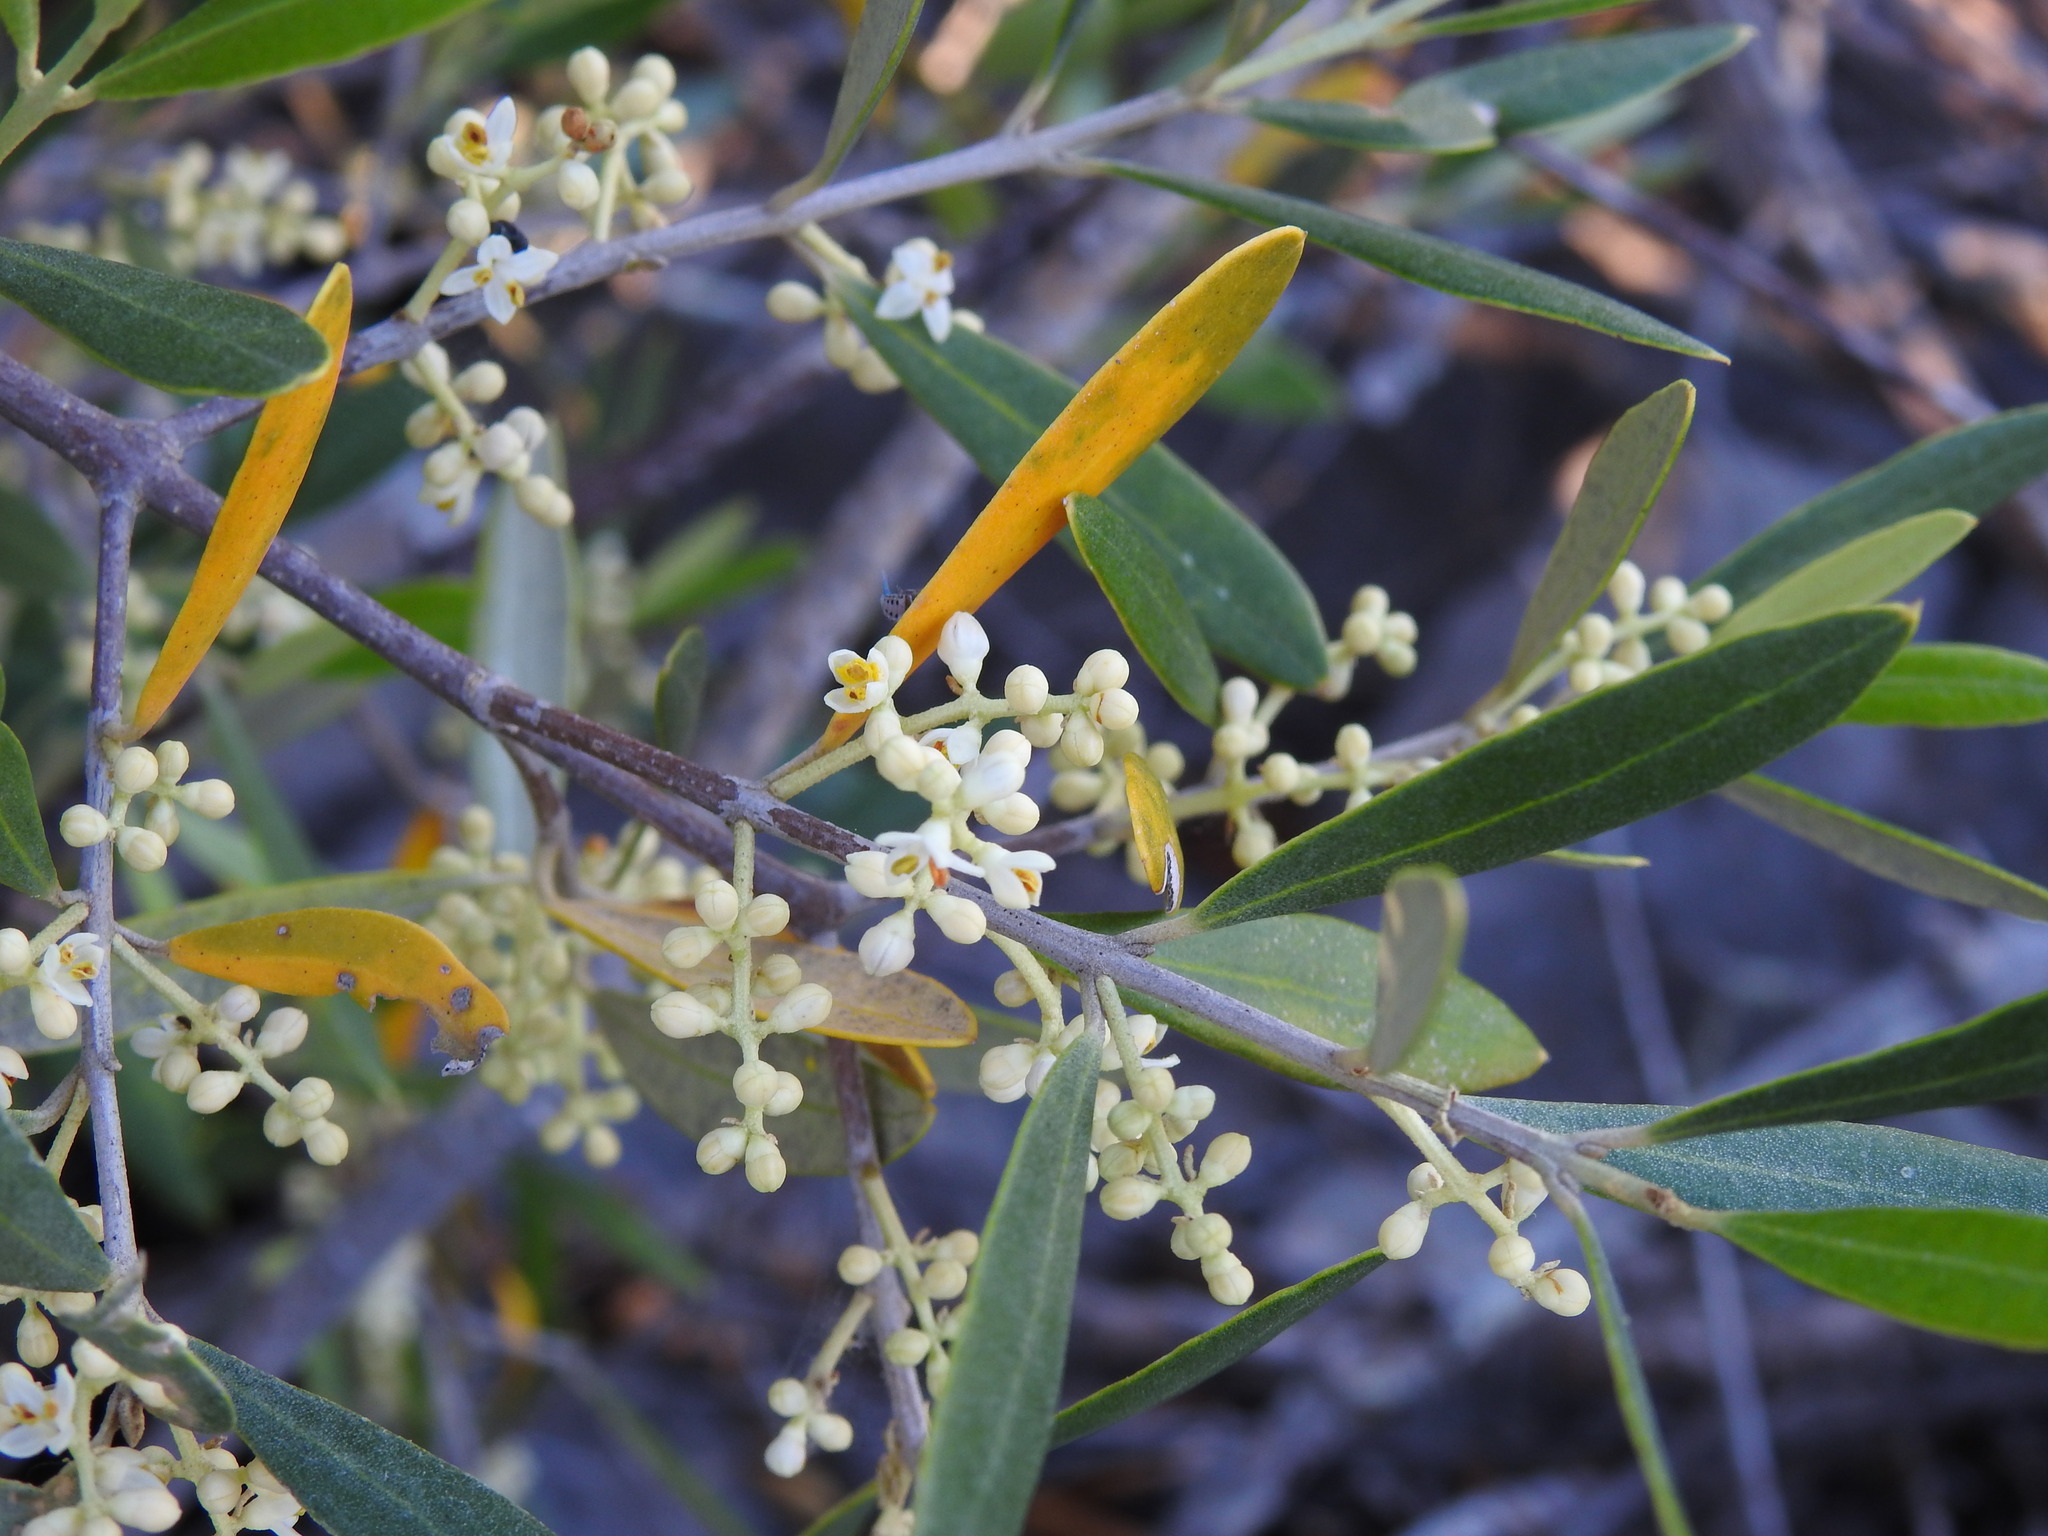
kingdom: Plantae
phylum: Tracheophyta
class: Magnoliopsida
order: Lamiales
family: Oleaceae
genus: Olea
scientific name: Olea europaea
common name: Olive
